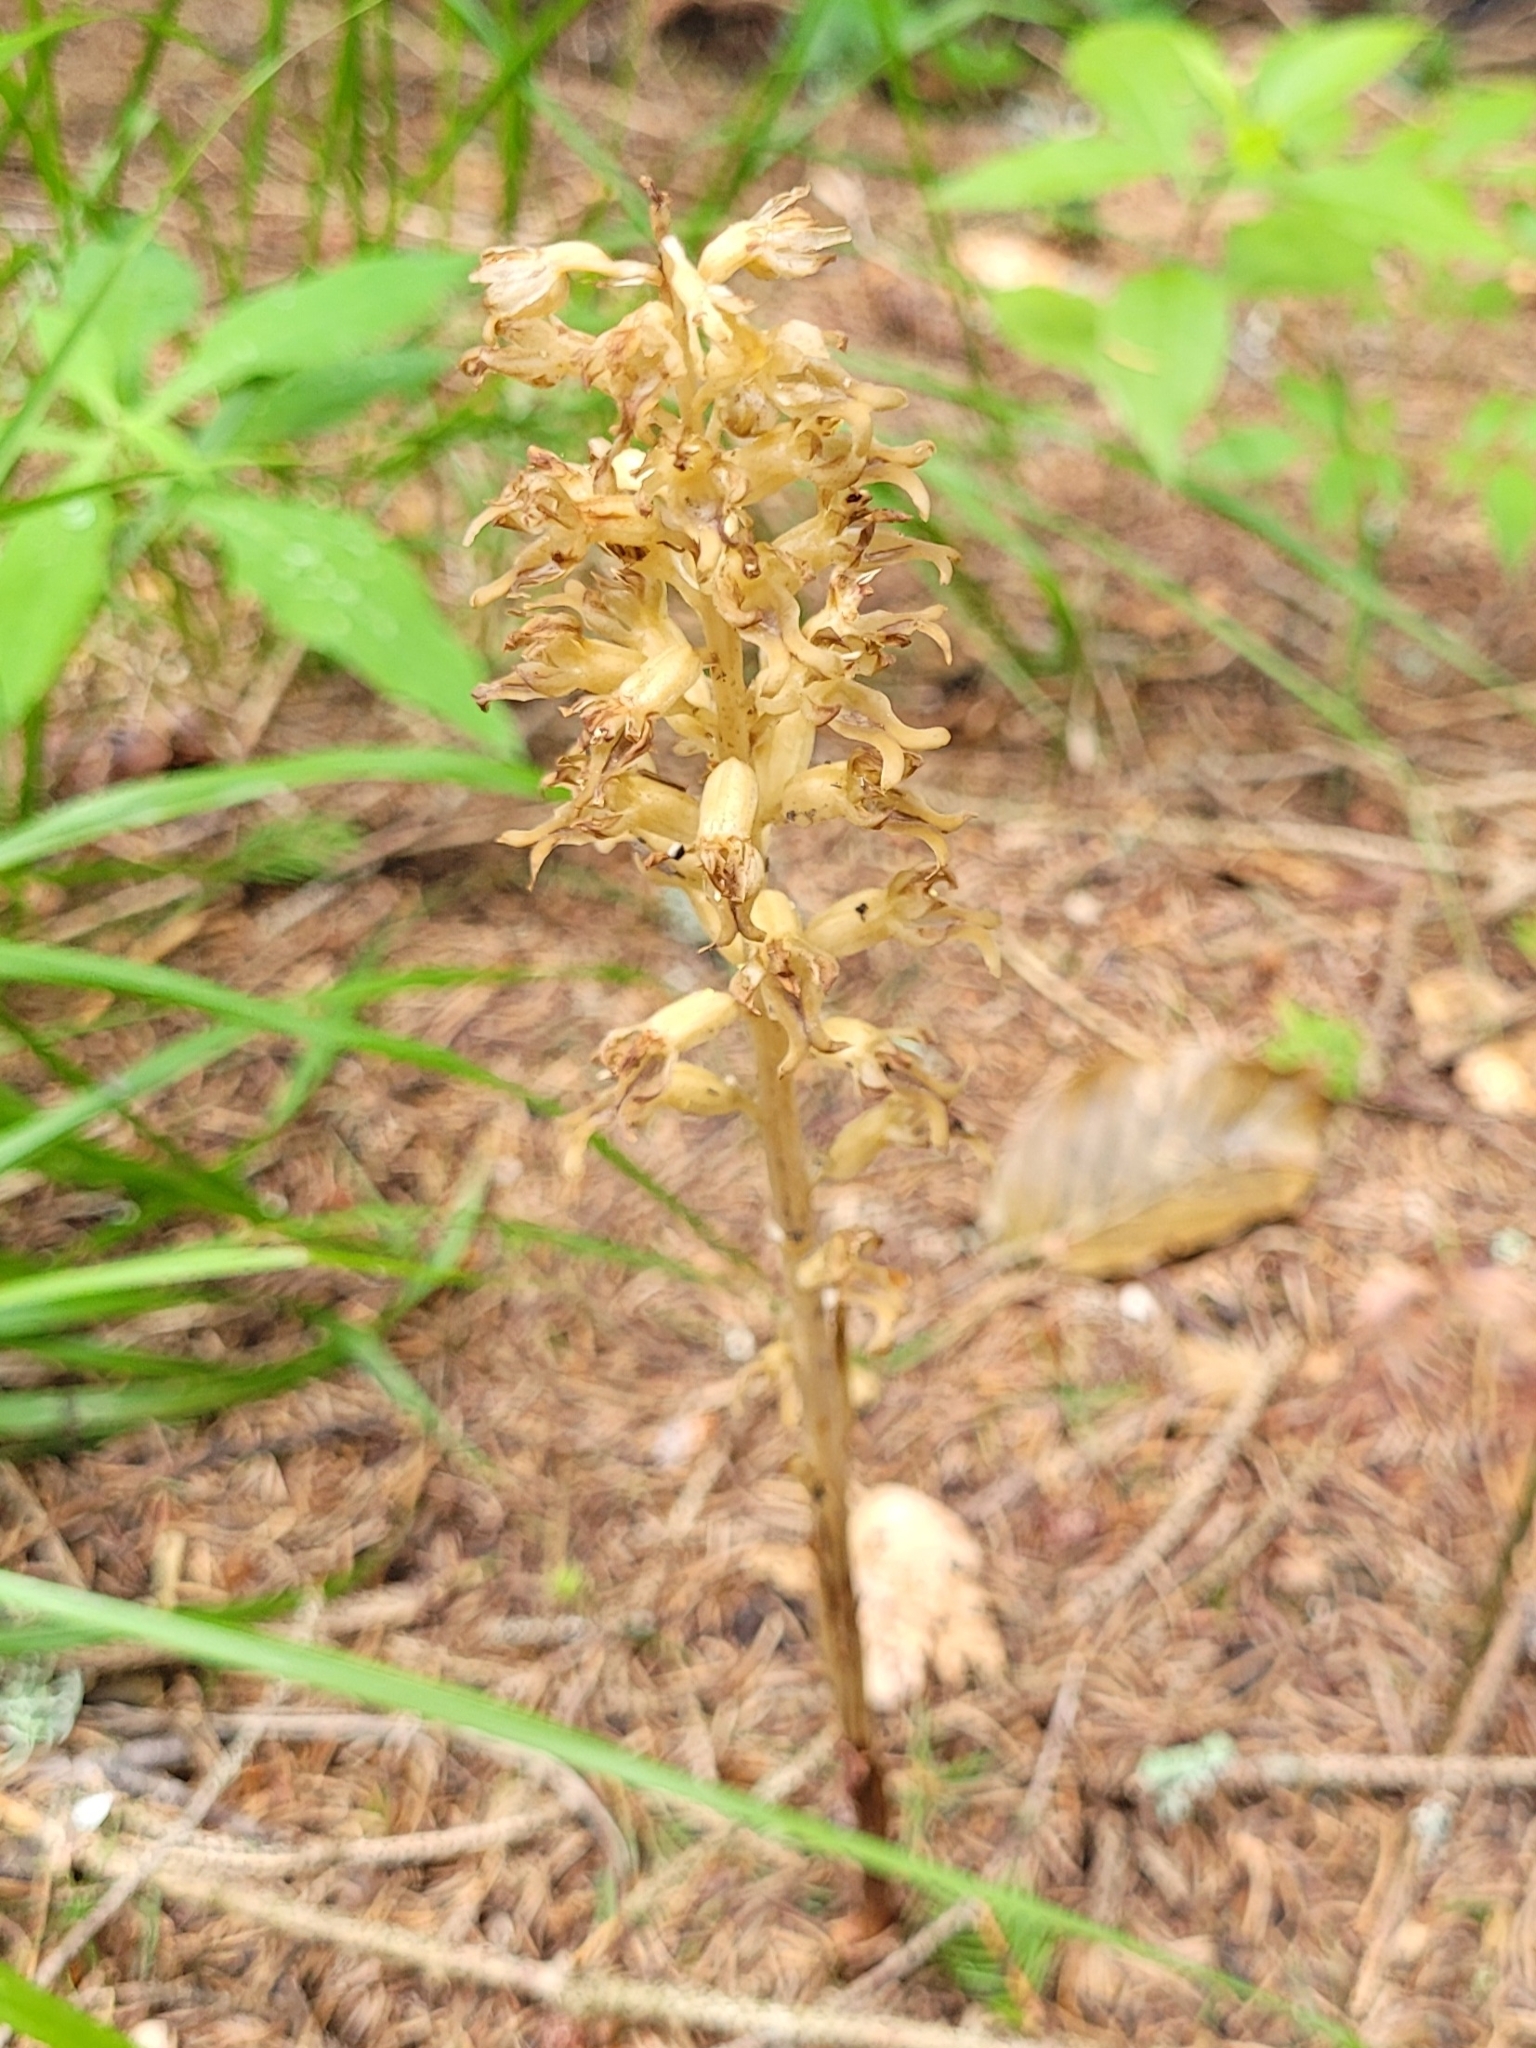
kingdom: Plantae
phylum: Tracheophyta
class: Liliopsida
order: Asparagales
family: Orchidaceae
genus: Neottia
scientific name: Neottia nidus-avis
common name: Bird's-nest orchid
